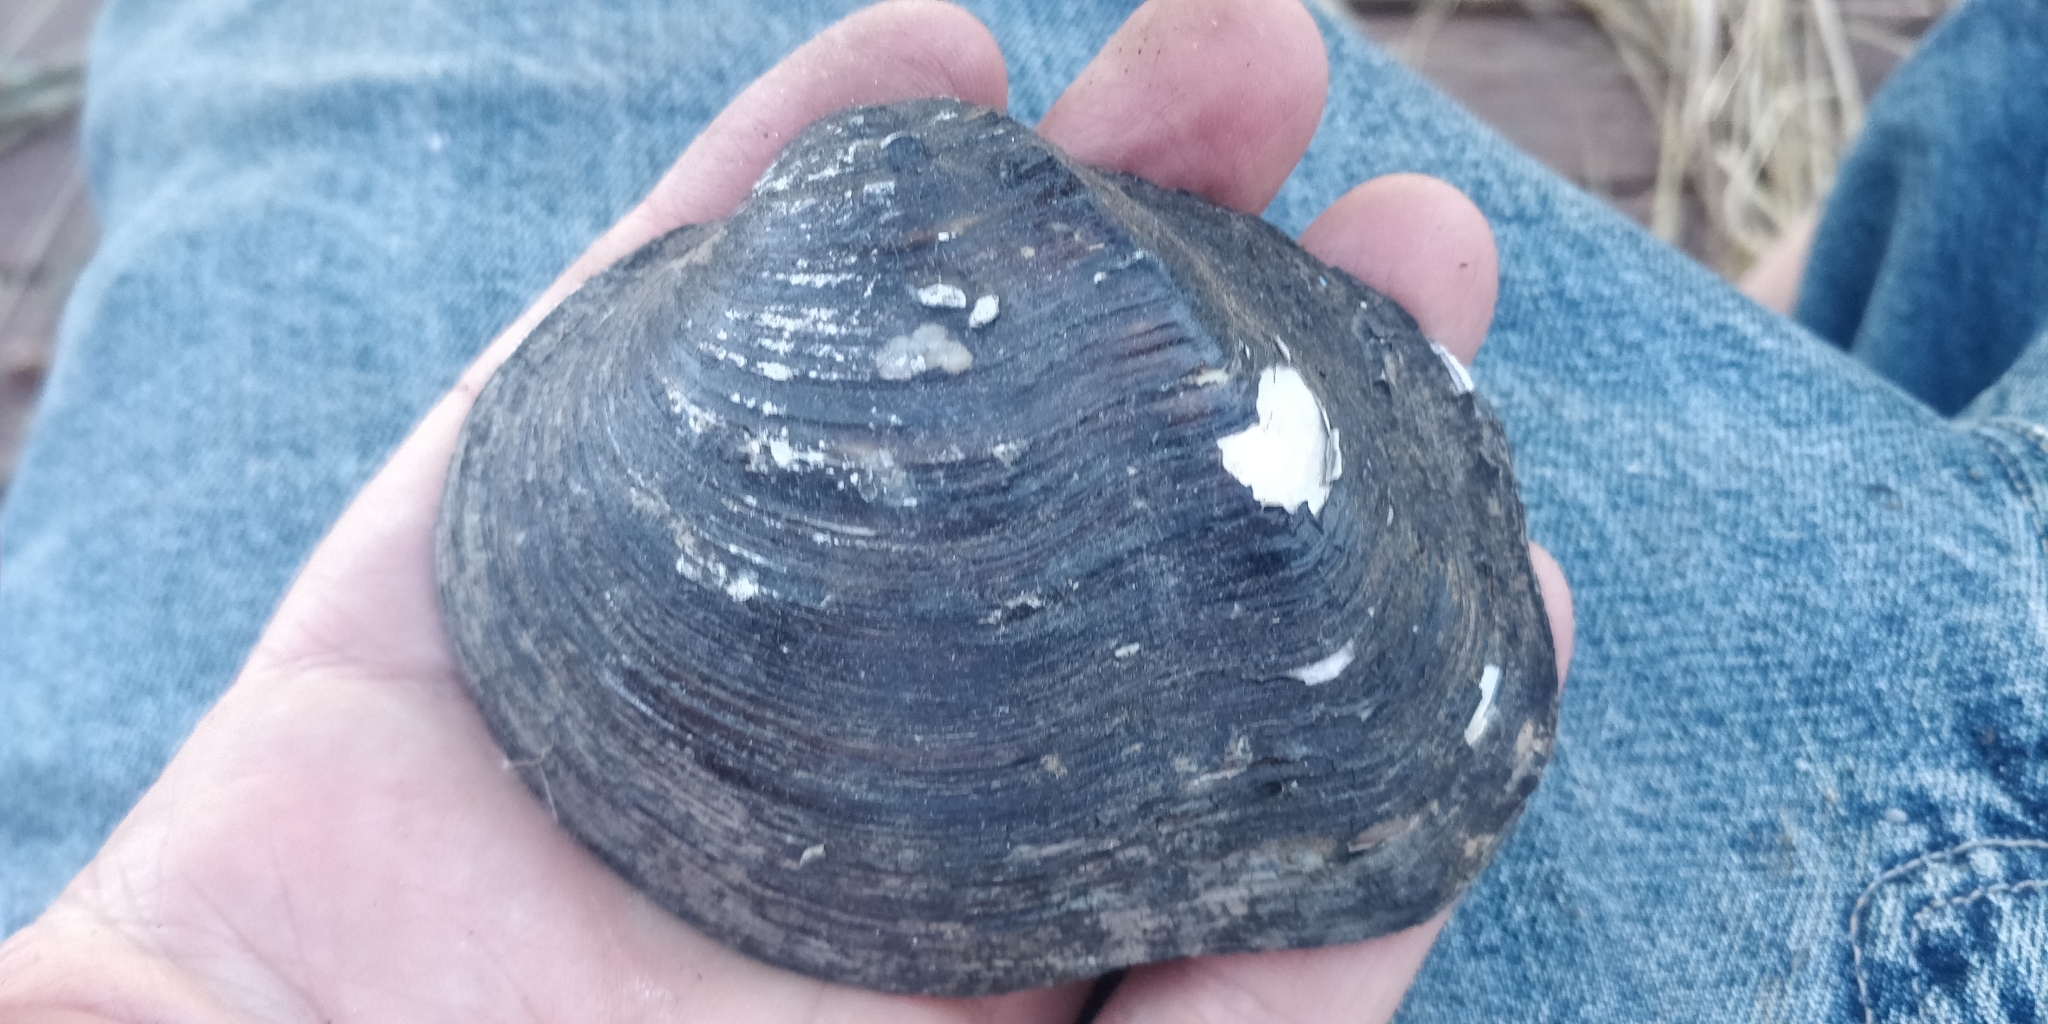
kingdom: Animalia
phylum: Mollusca
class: Bivalvia
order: Unionida
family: Unionidae
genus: Quadrula
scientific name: Quadrula quadrula
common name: Mapleleaf
